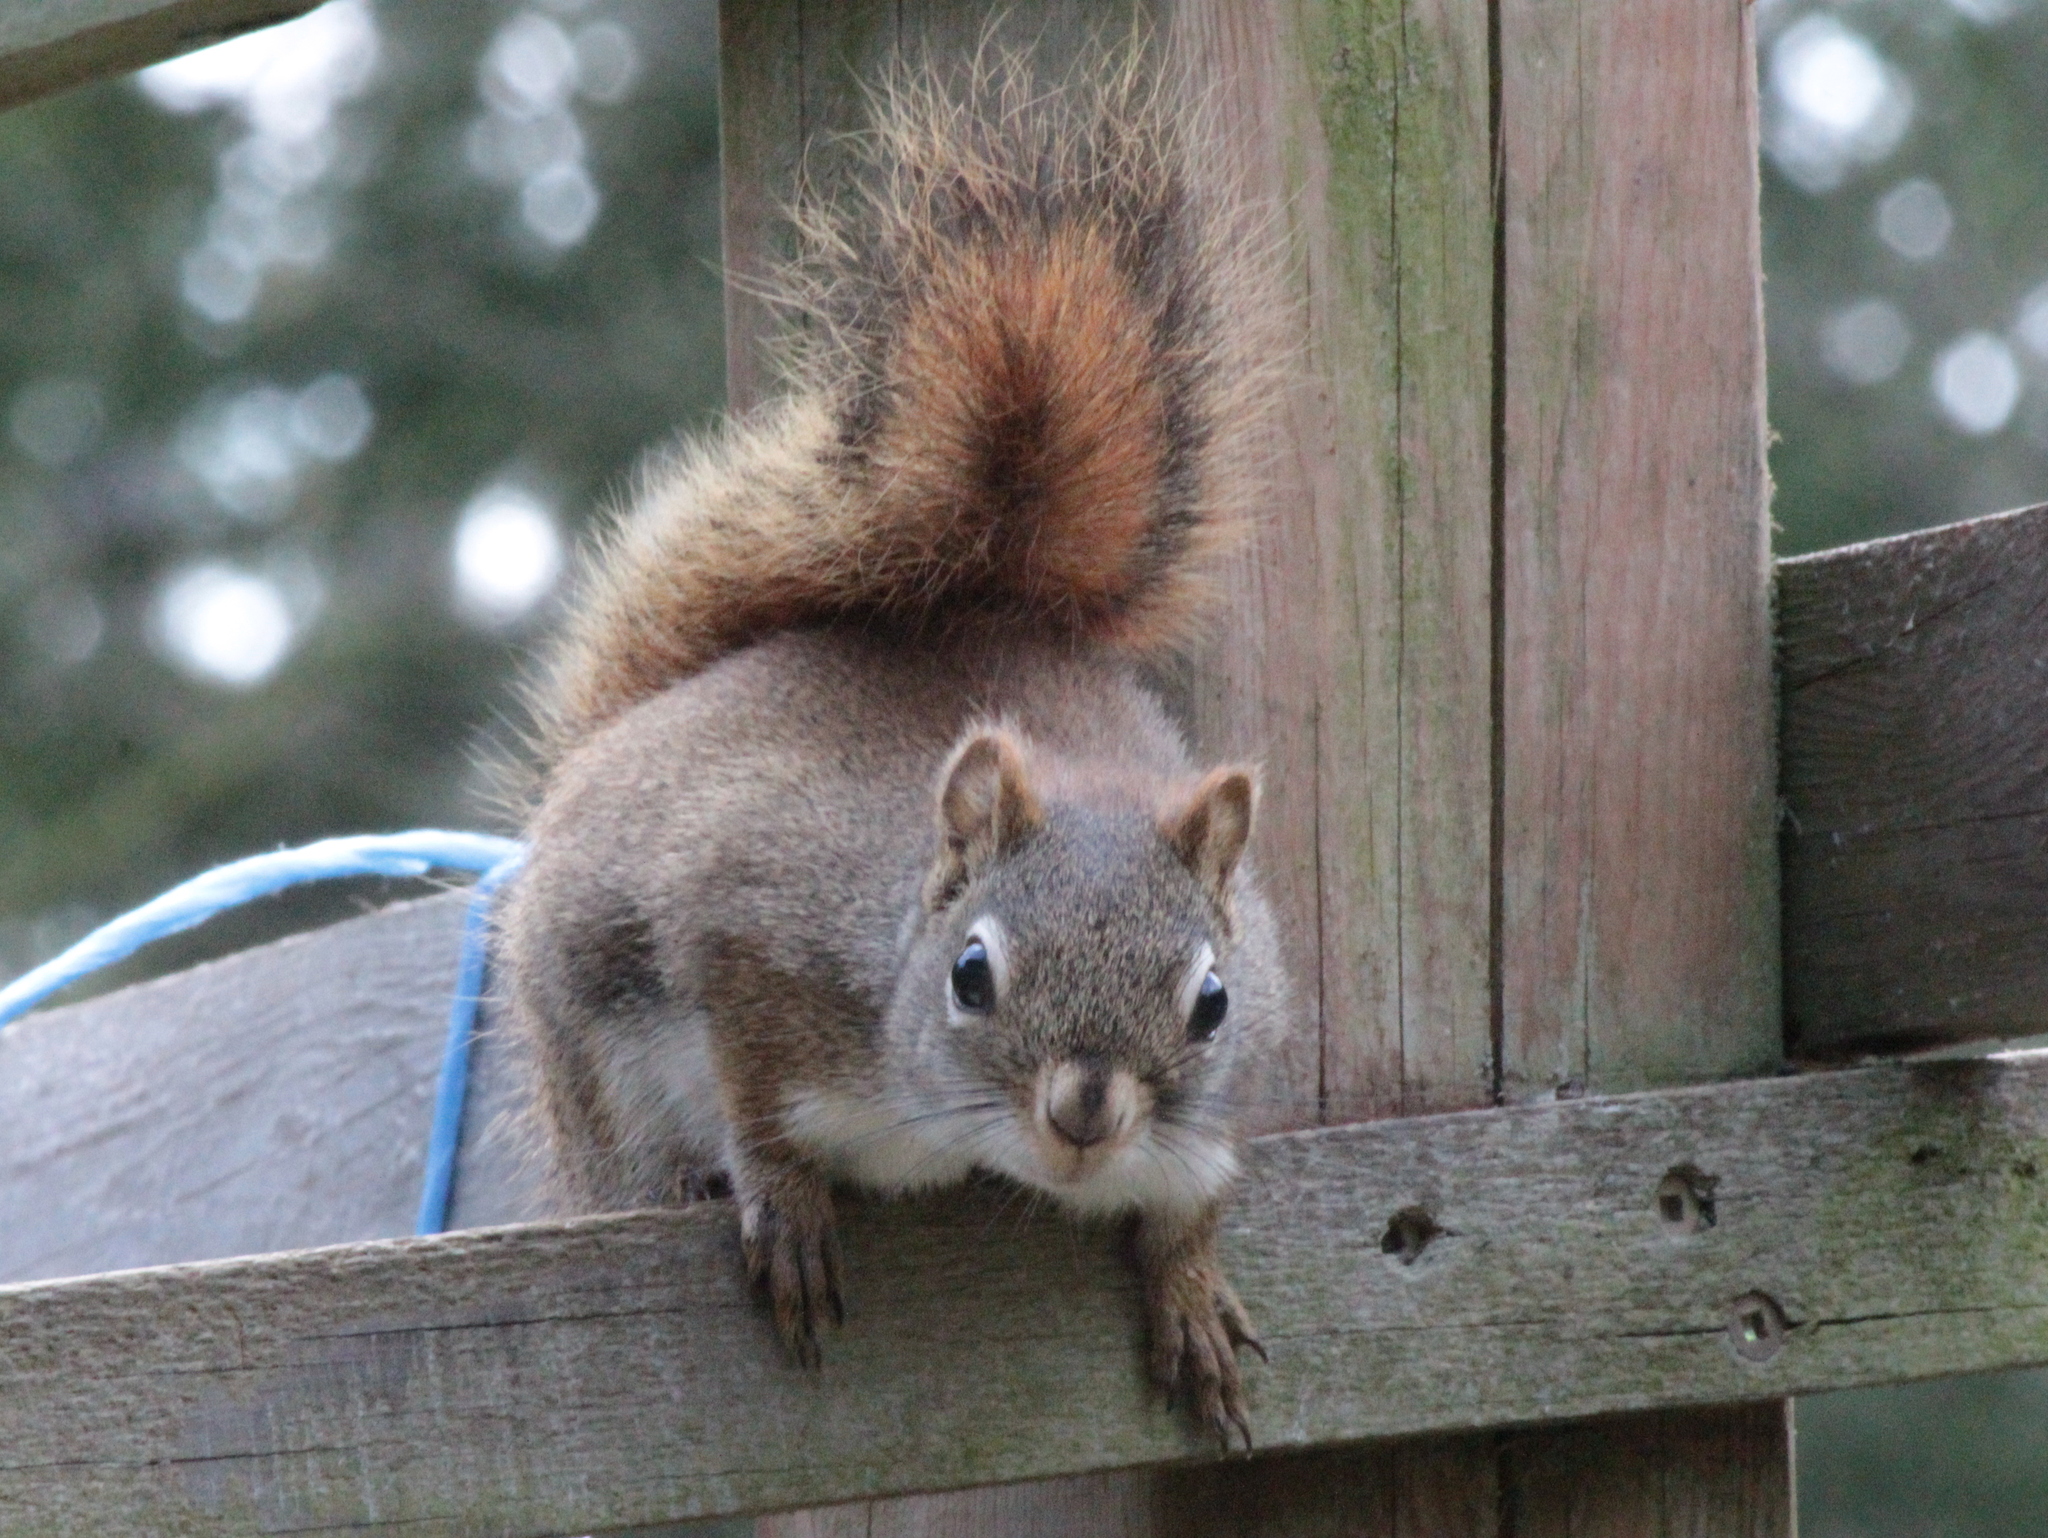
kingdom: Animalia
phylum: Chordata
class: Mammalia
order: Rodentia
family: Sciuridae
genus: Tamiasciurus
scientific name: Tamiasciurus hudsonicus
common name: Red squirrel
